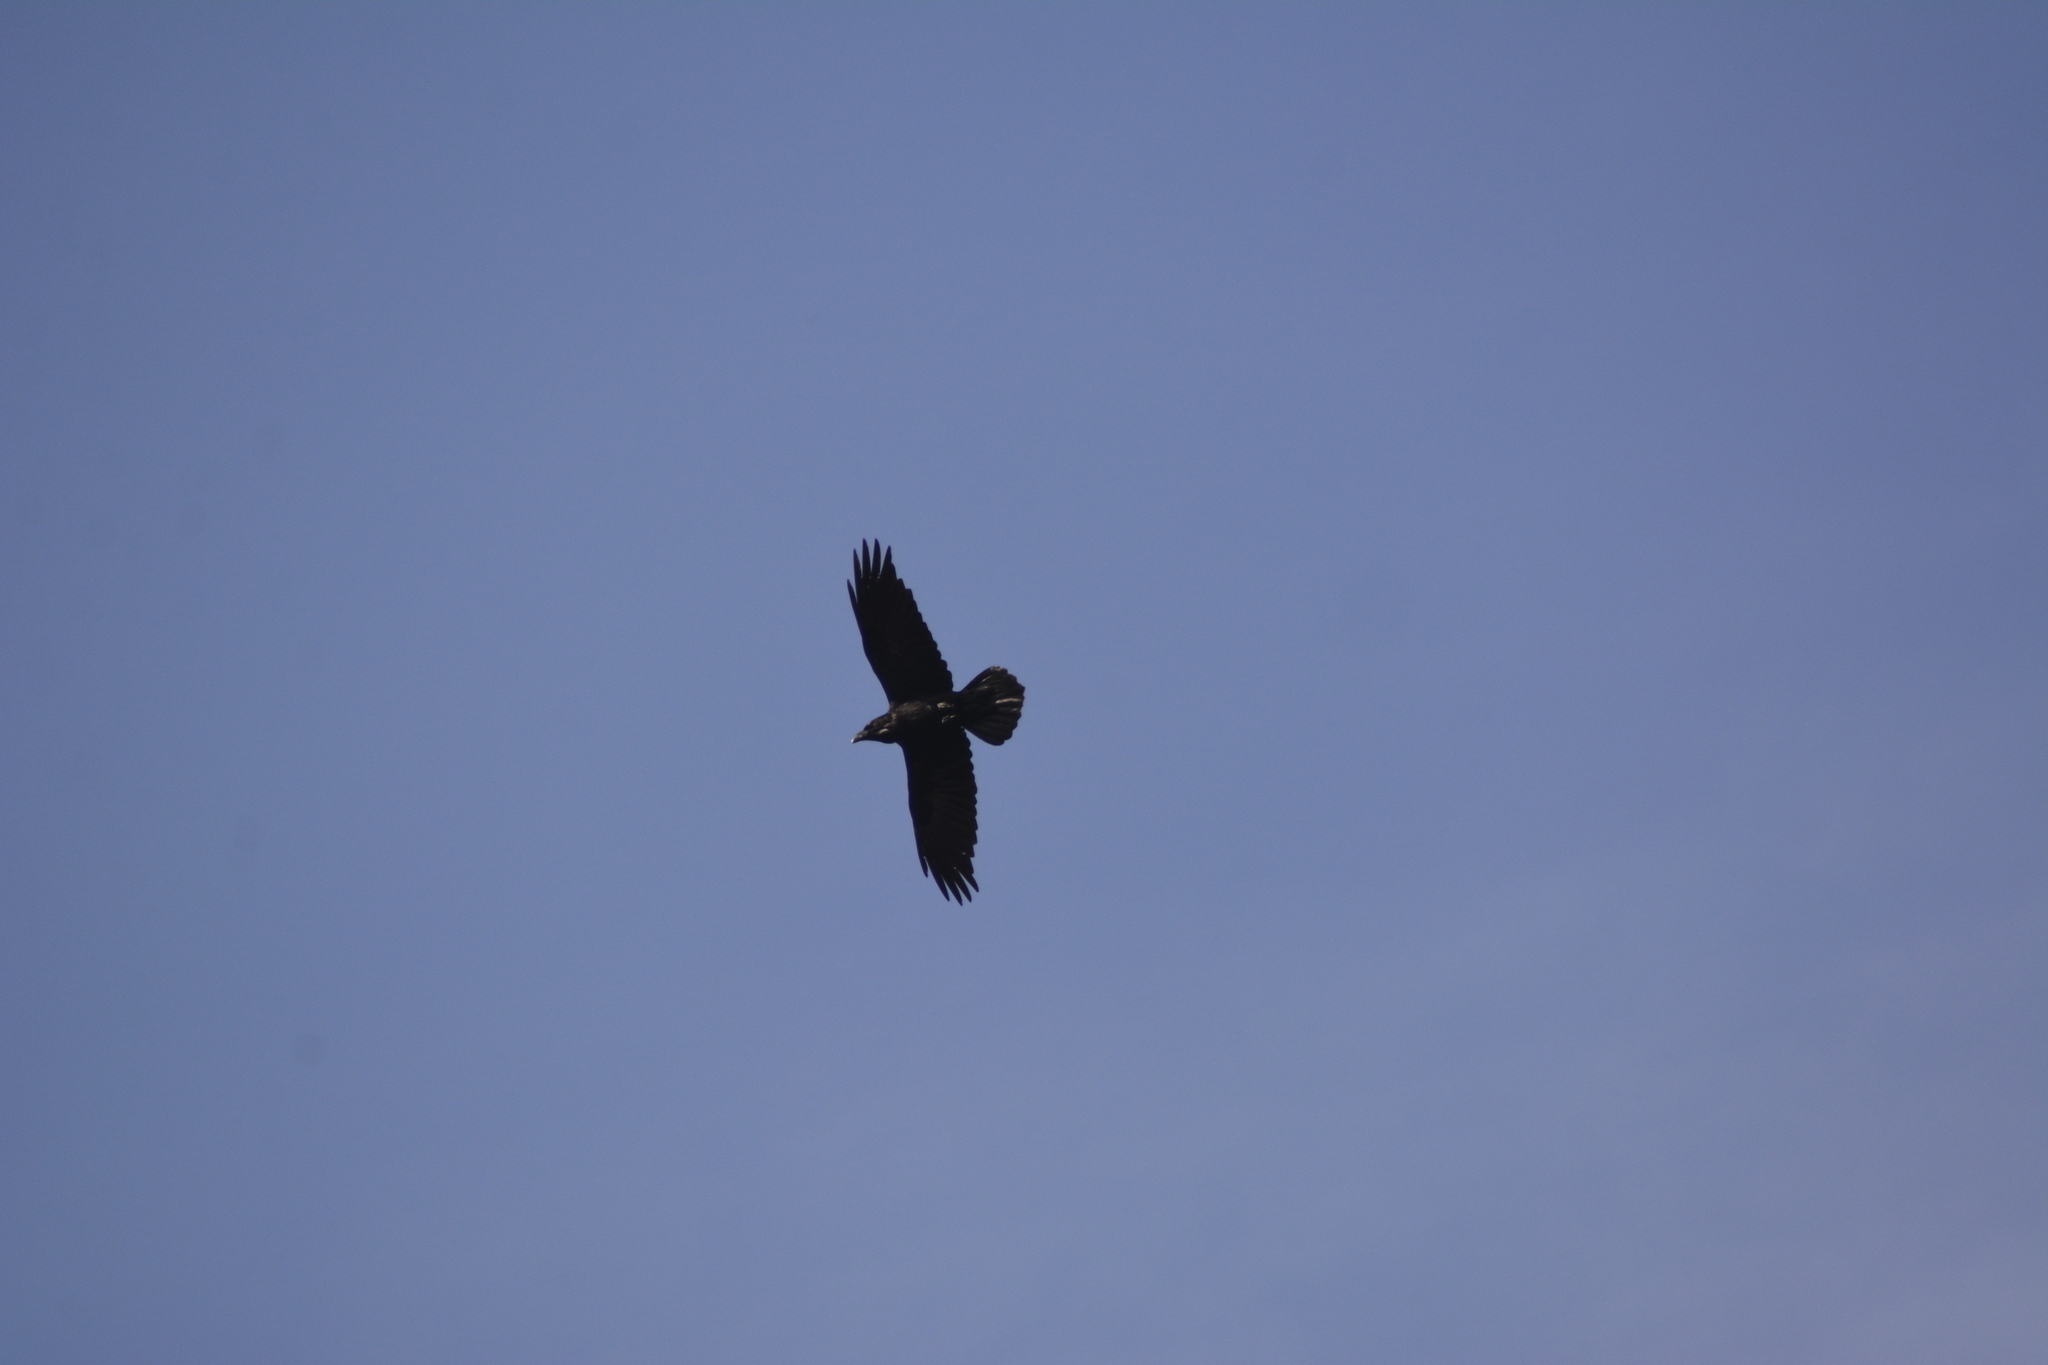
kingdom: Animalia
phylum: Chordata
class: Aves
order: Passeriformes
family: Corvidae
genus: Corvus
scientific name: Corvus corax
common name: Common raven
